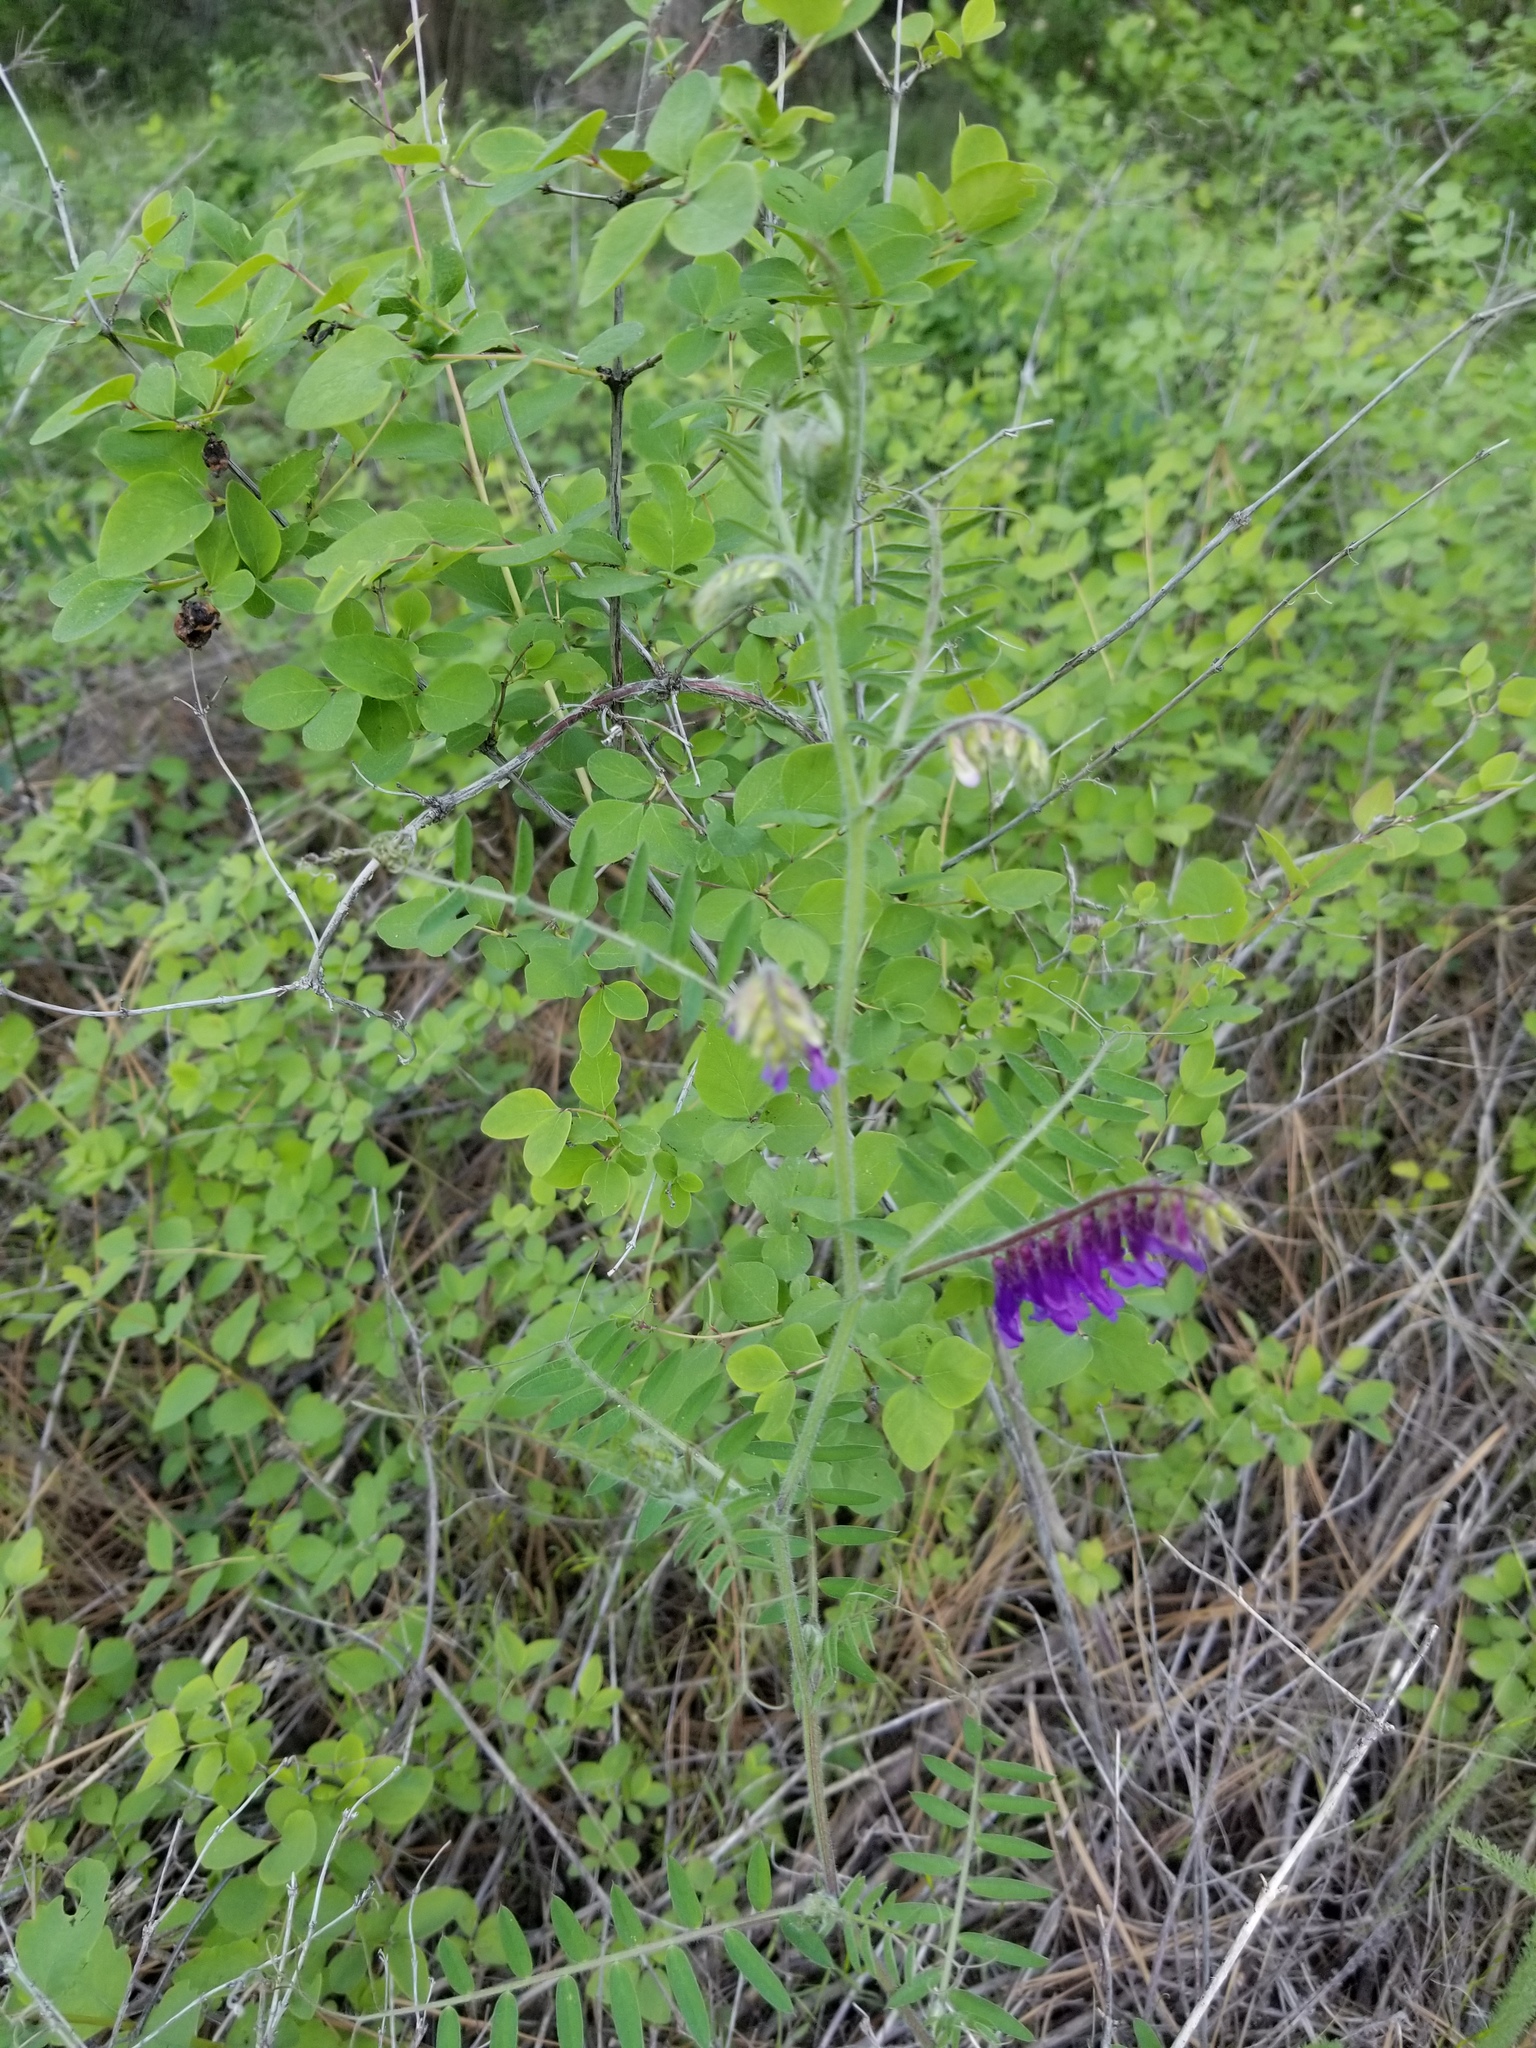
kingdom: Plantae
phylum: Tracheophyta
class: Magnoliopsida
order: Fabales
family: Fabaceae
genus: Vicia
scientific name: Vicia villosa
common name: Fodder vetch
